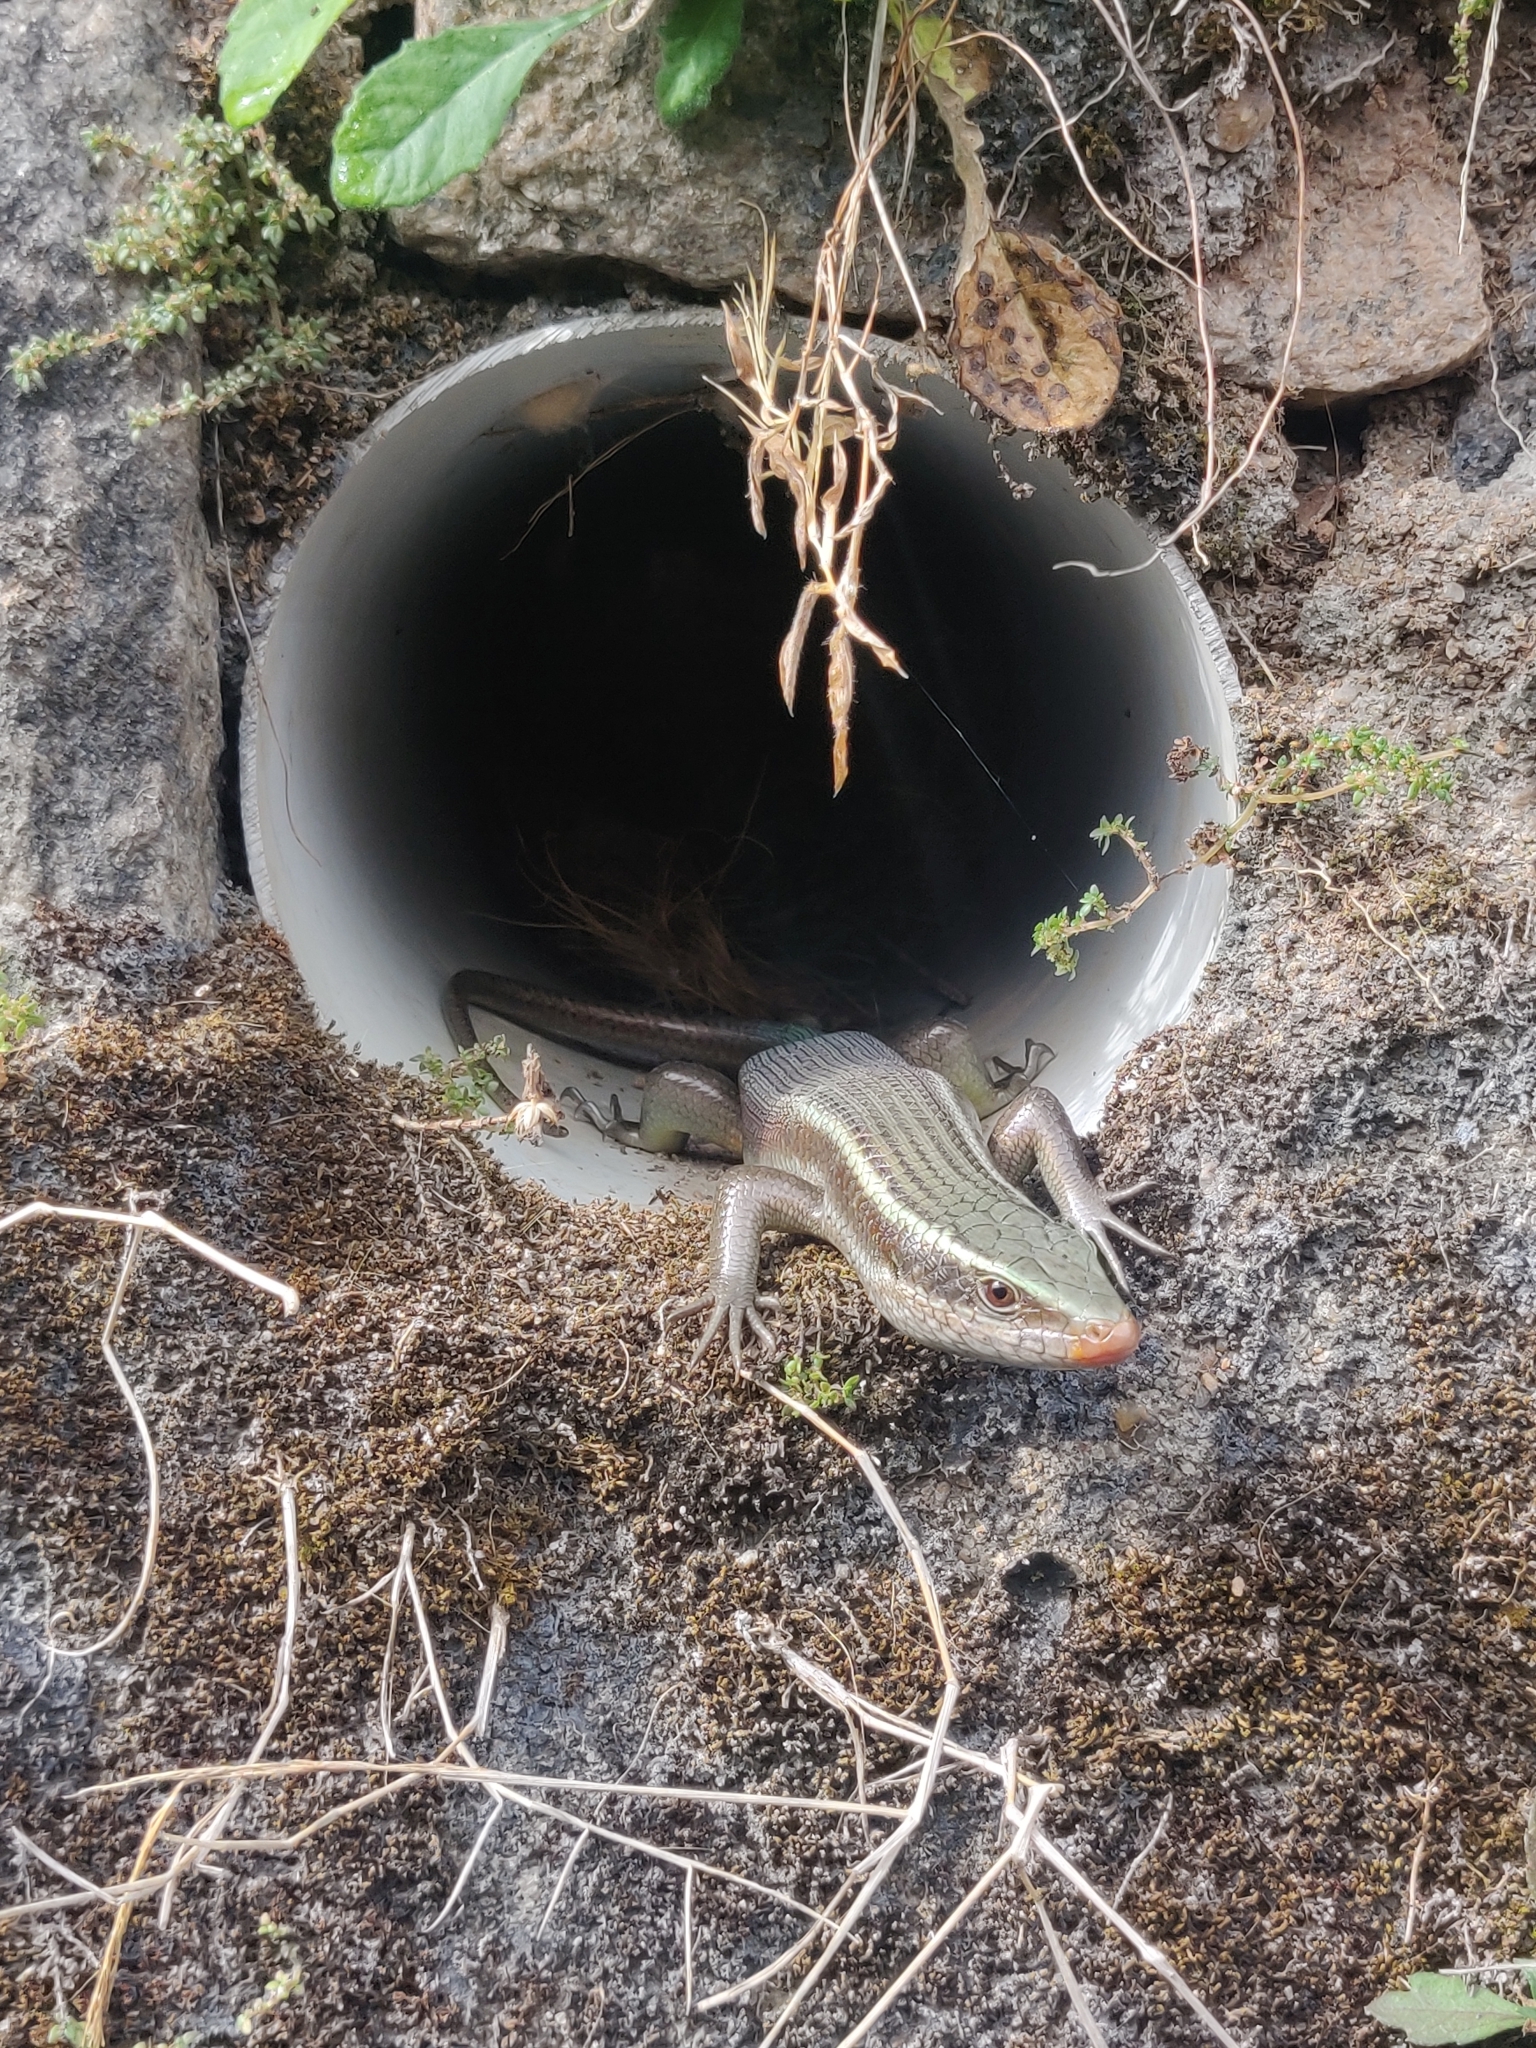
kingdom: Animalia
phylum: Chordata
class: Squamata
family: Scincidae
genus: Eutropis
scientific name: Eutropis carinata
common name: Keeled indian mabuya
